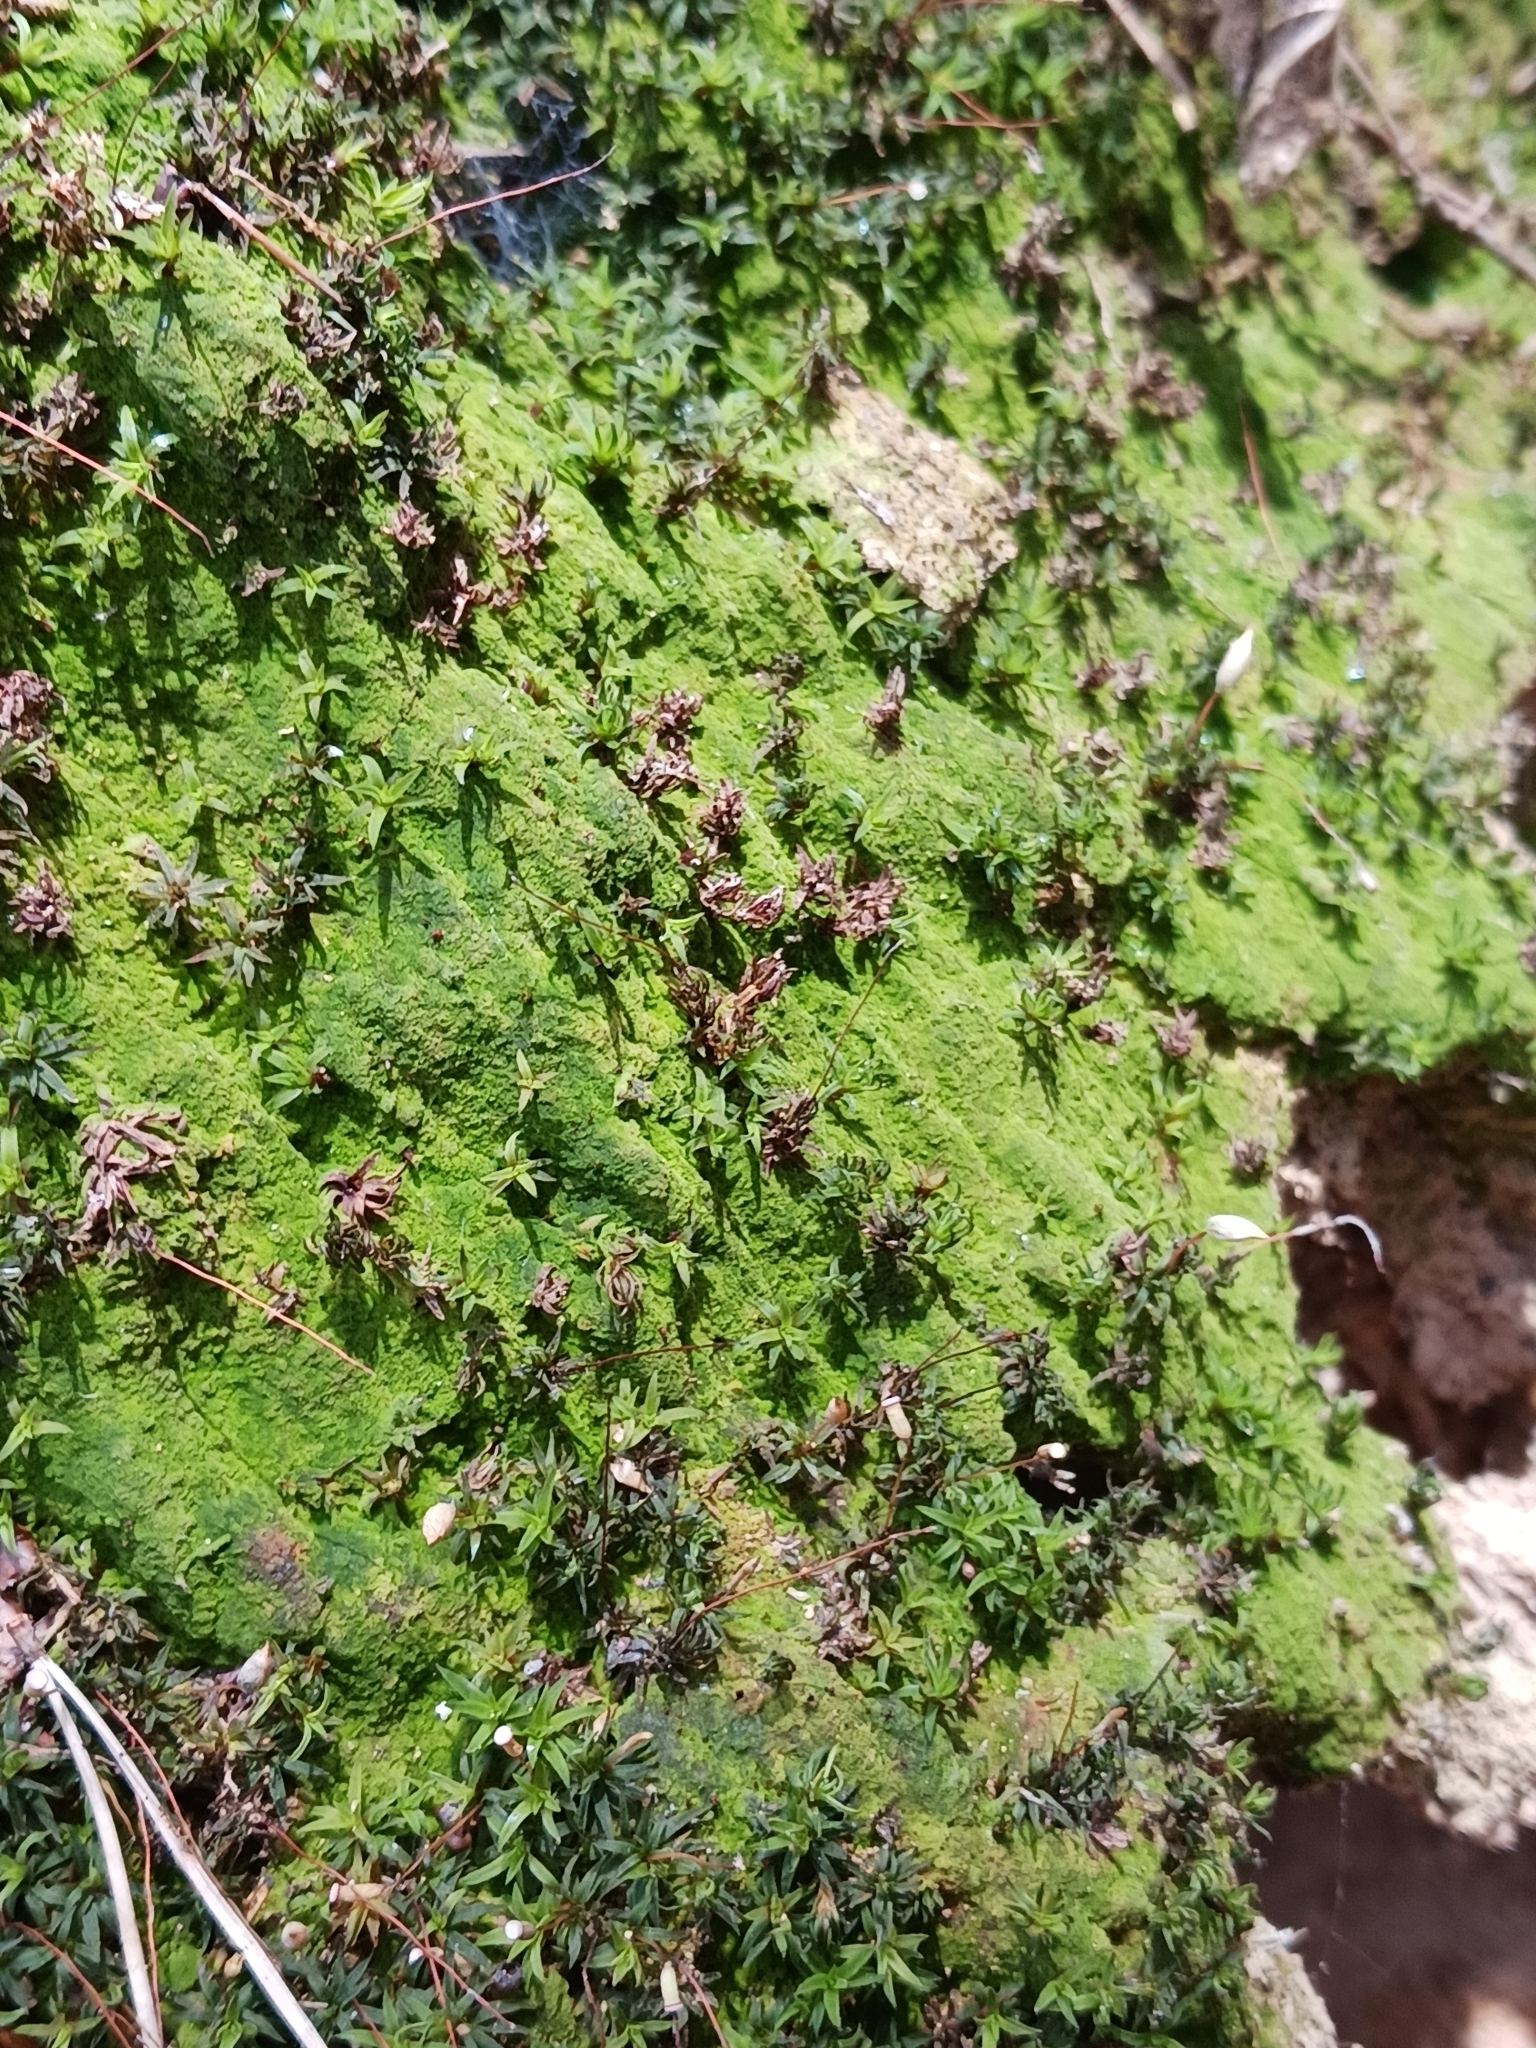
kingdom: Plantae
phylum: Bryophyta
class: Polytrichopsida
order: Polytrichales
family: Polytrichaceae
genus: Pogonatum
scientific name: Pogonatum aloides
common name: Aloe haircap
